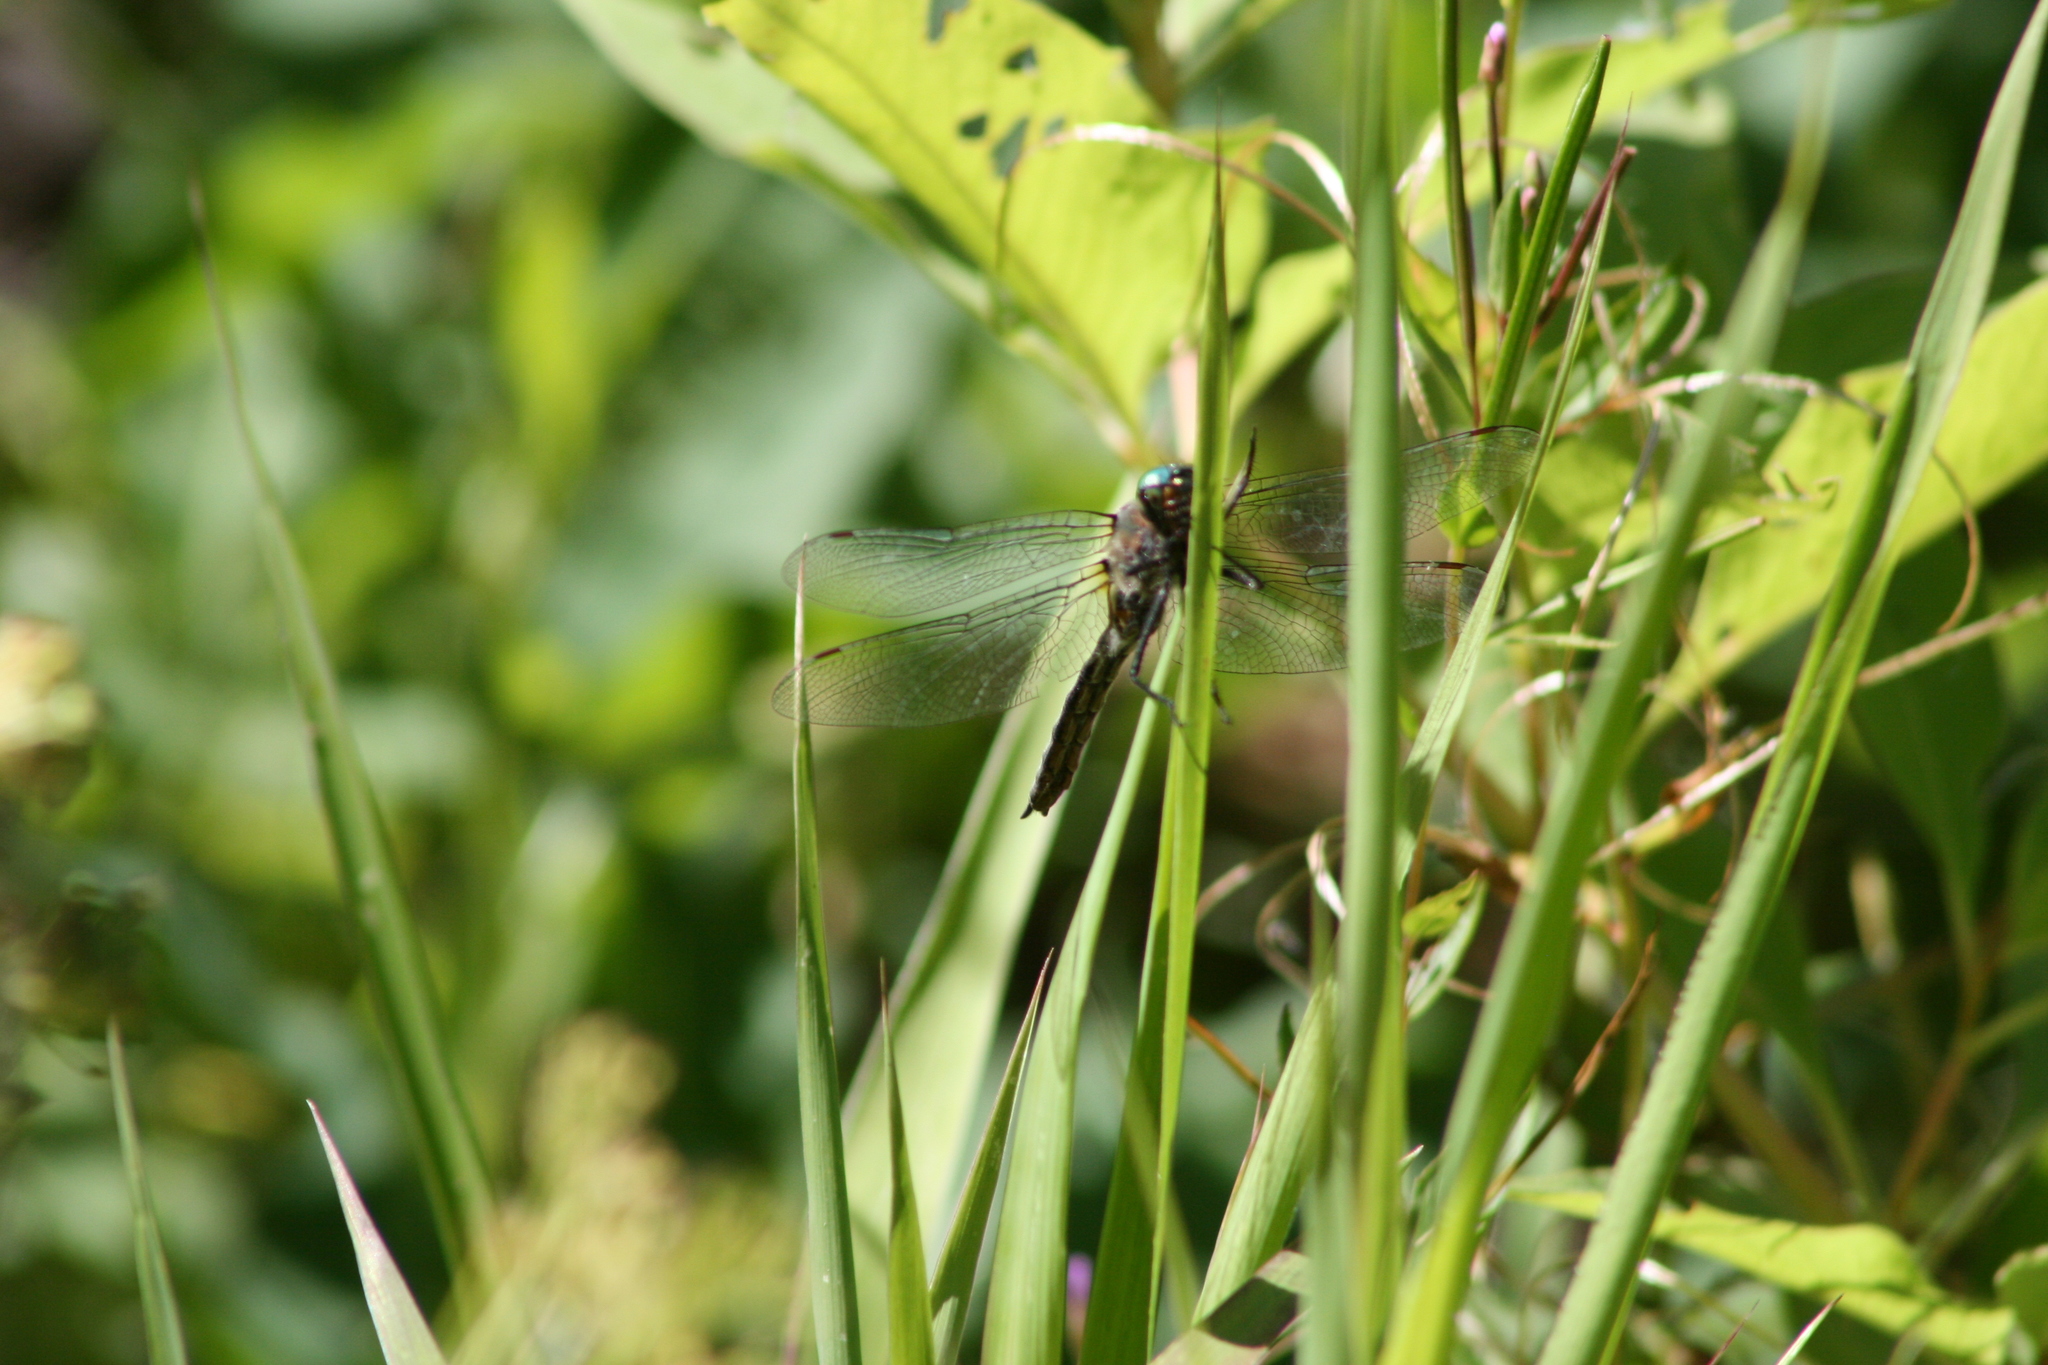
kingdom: Animalia
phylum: Arthropoda
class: Insecta
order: Odonata
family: Corduliidae
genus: Cordulia
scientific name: Cordulia shurtleffii
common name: American emerald
